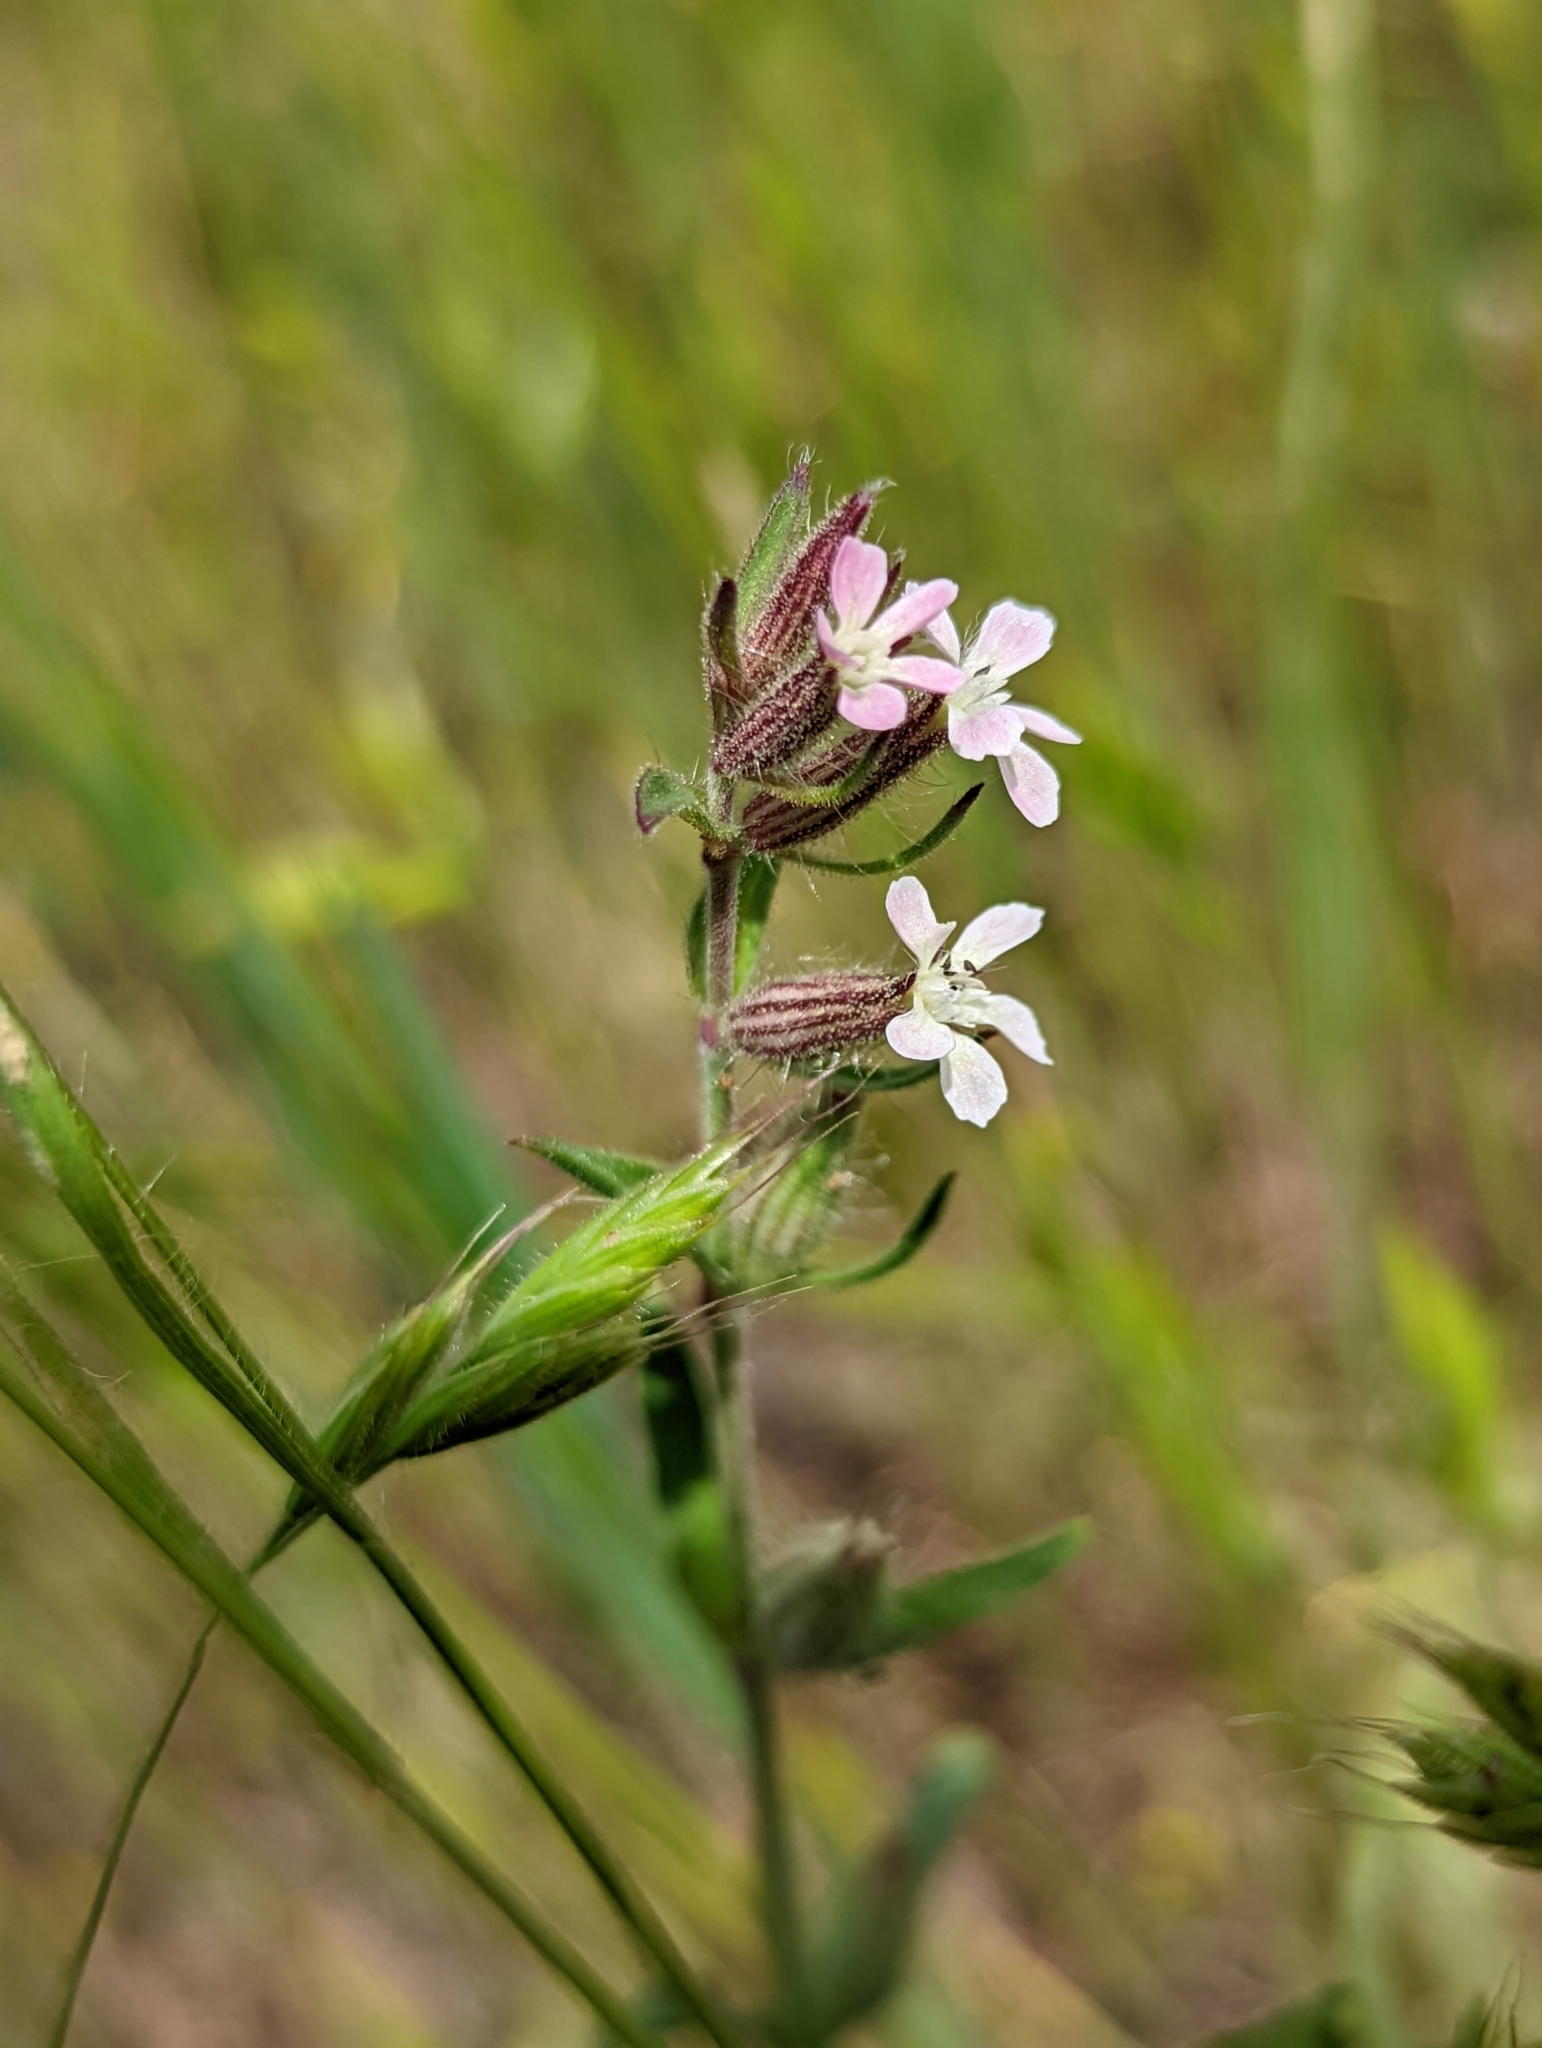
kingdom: Plantae
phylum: Tracheophyta
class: Magnoliopsida
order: Caryophyllales
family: Caryophyllaceae
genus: Silene
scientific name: Silene gallica
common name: Small-flowered catchfly
